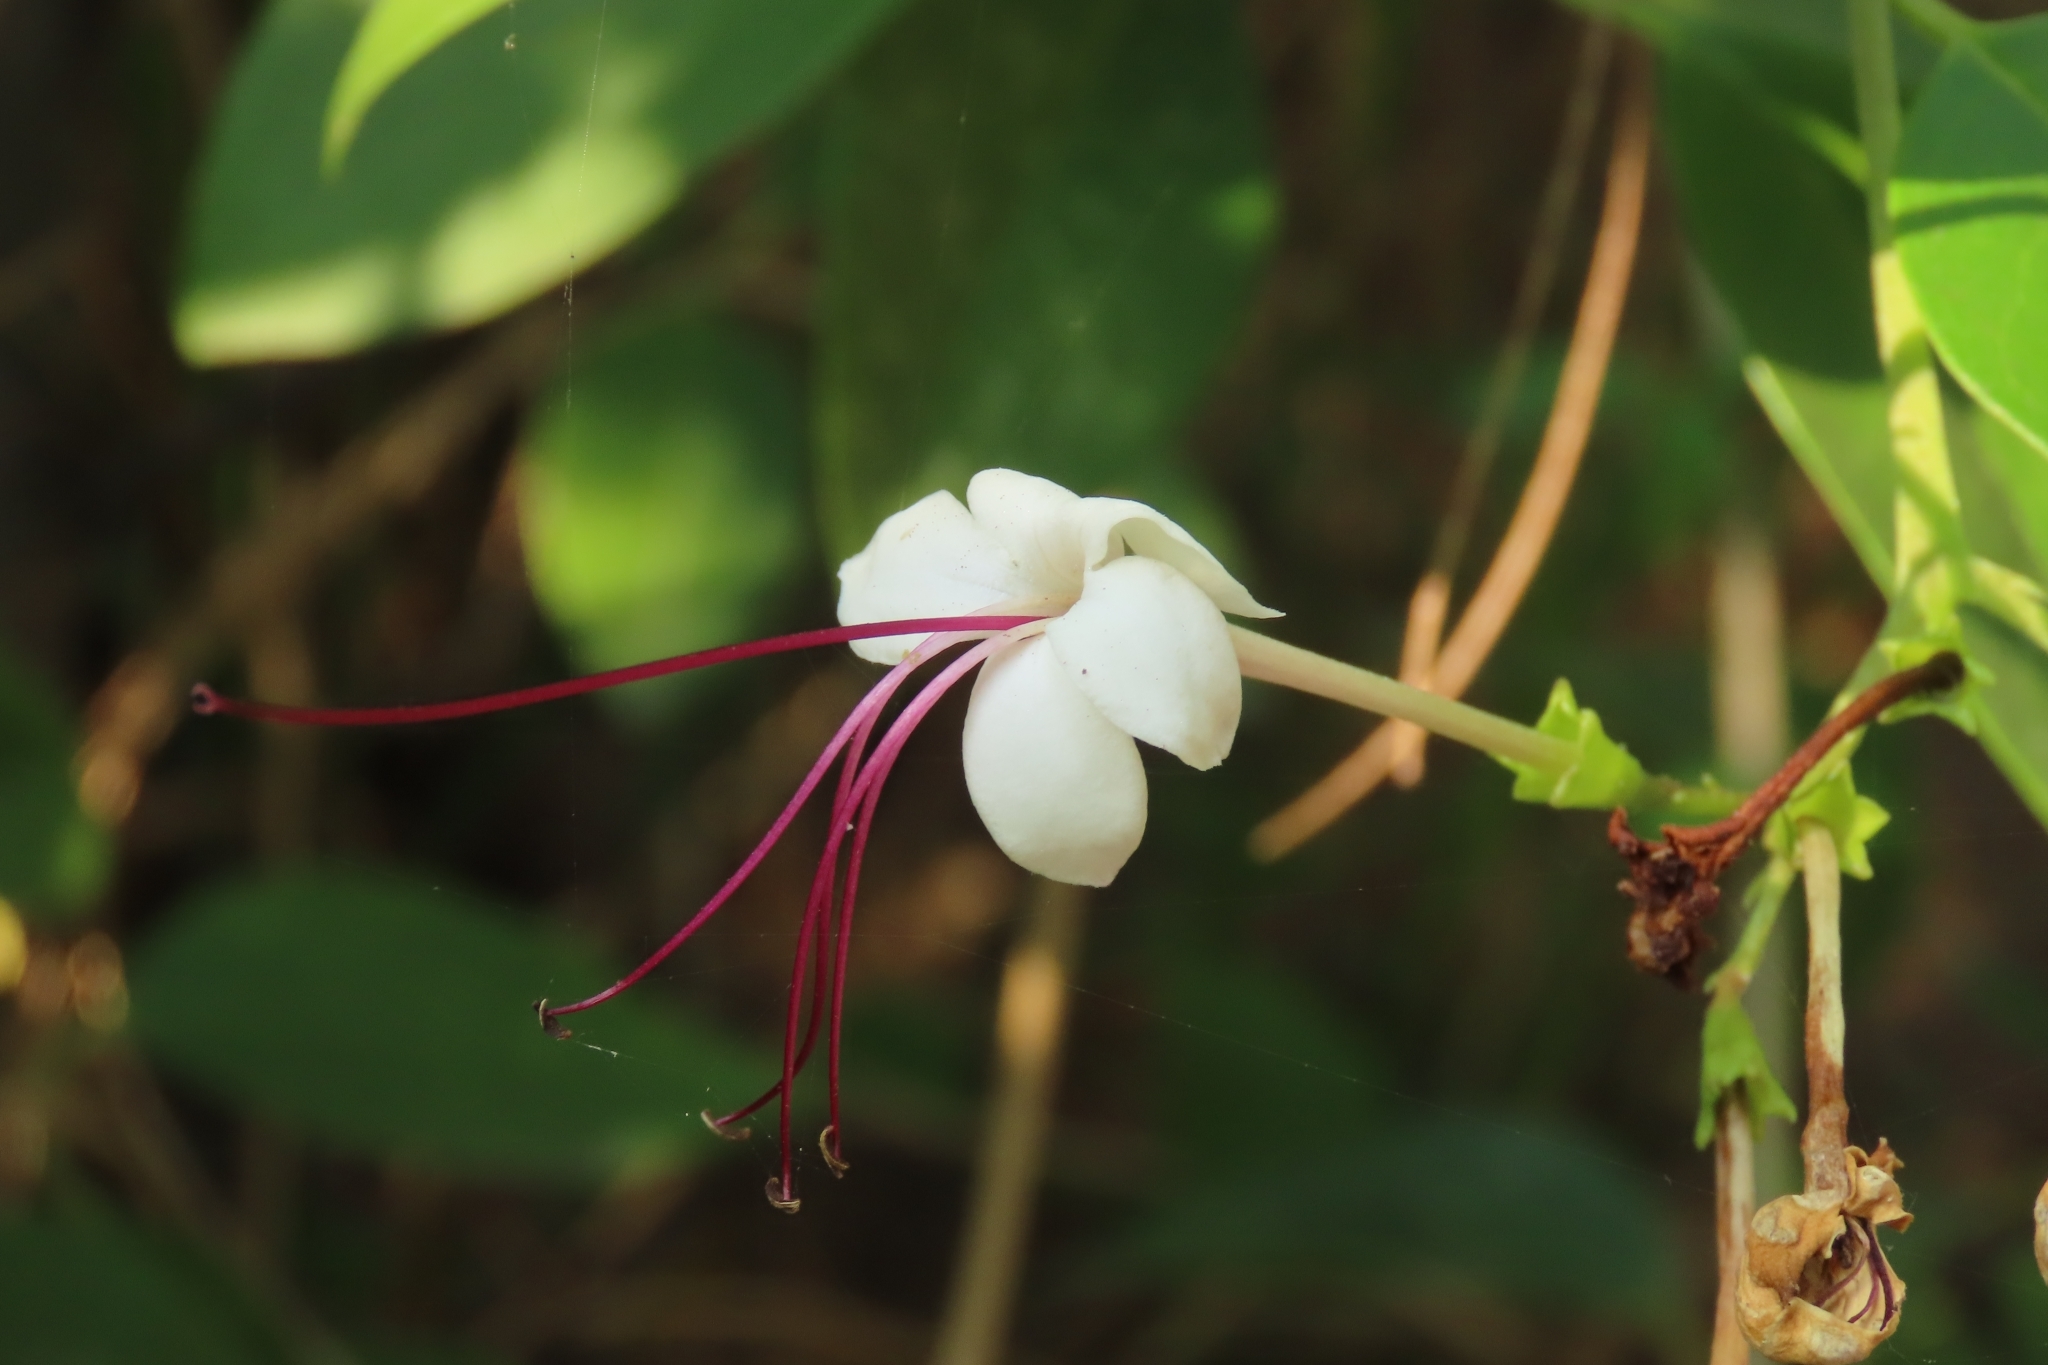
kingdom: Plantae
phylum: Tracheophyta
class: Magnoliopsida
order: Lamiales
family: Lamiaceae
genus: Volkameria
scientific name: Volkameria inermis
